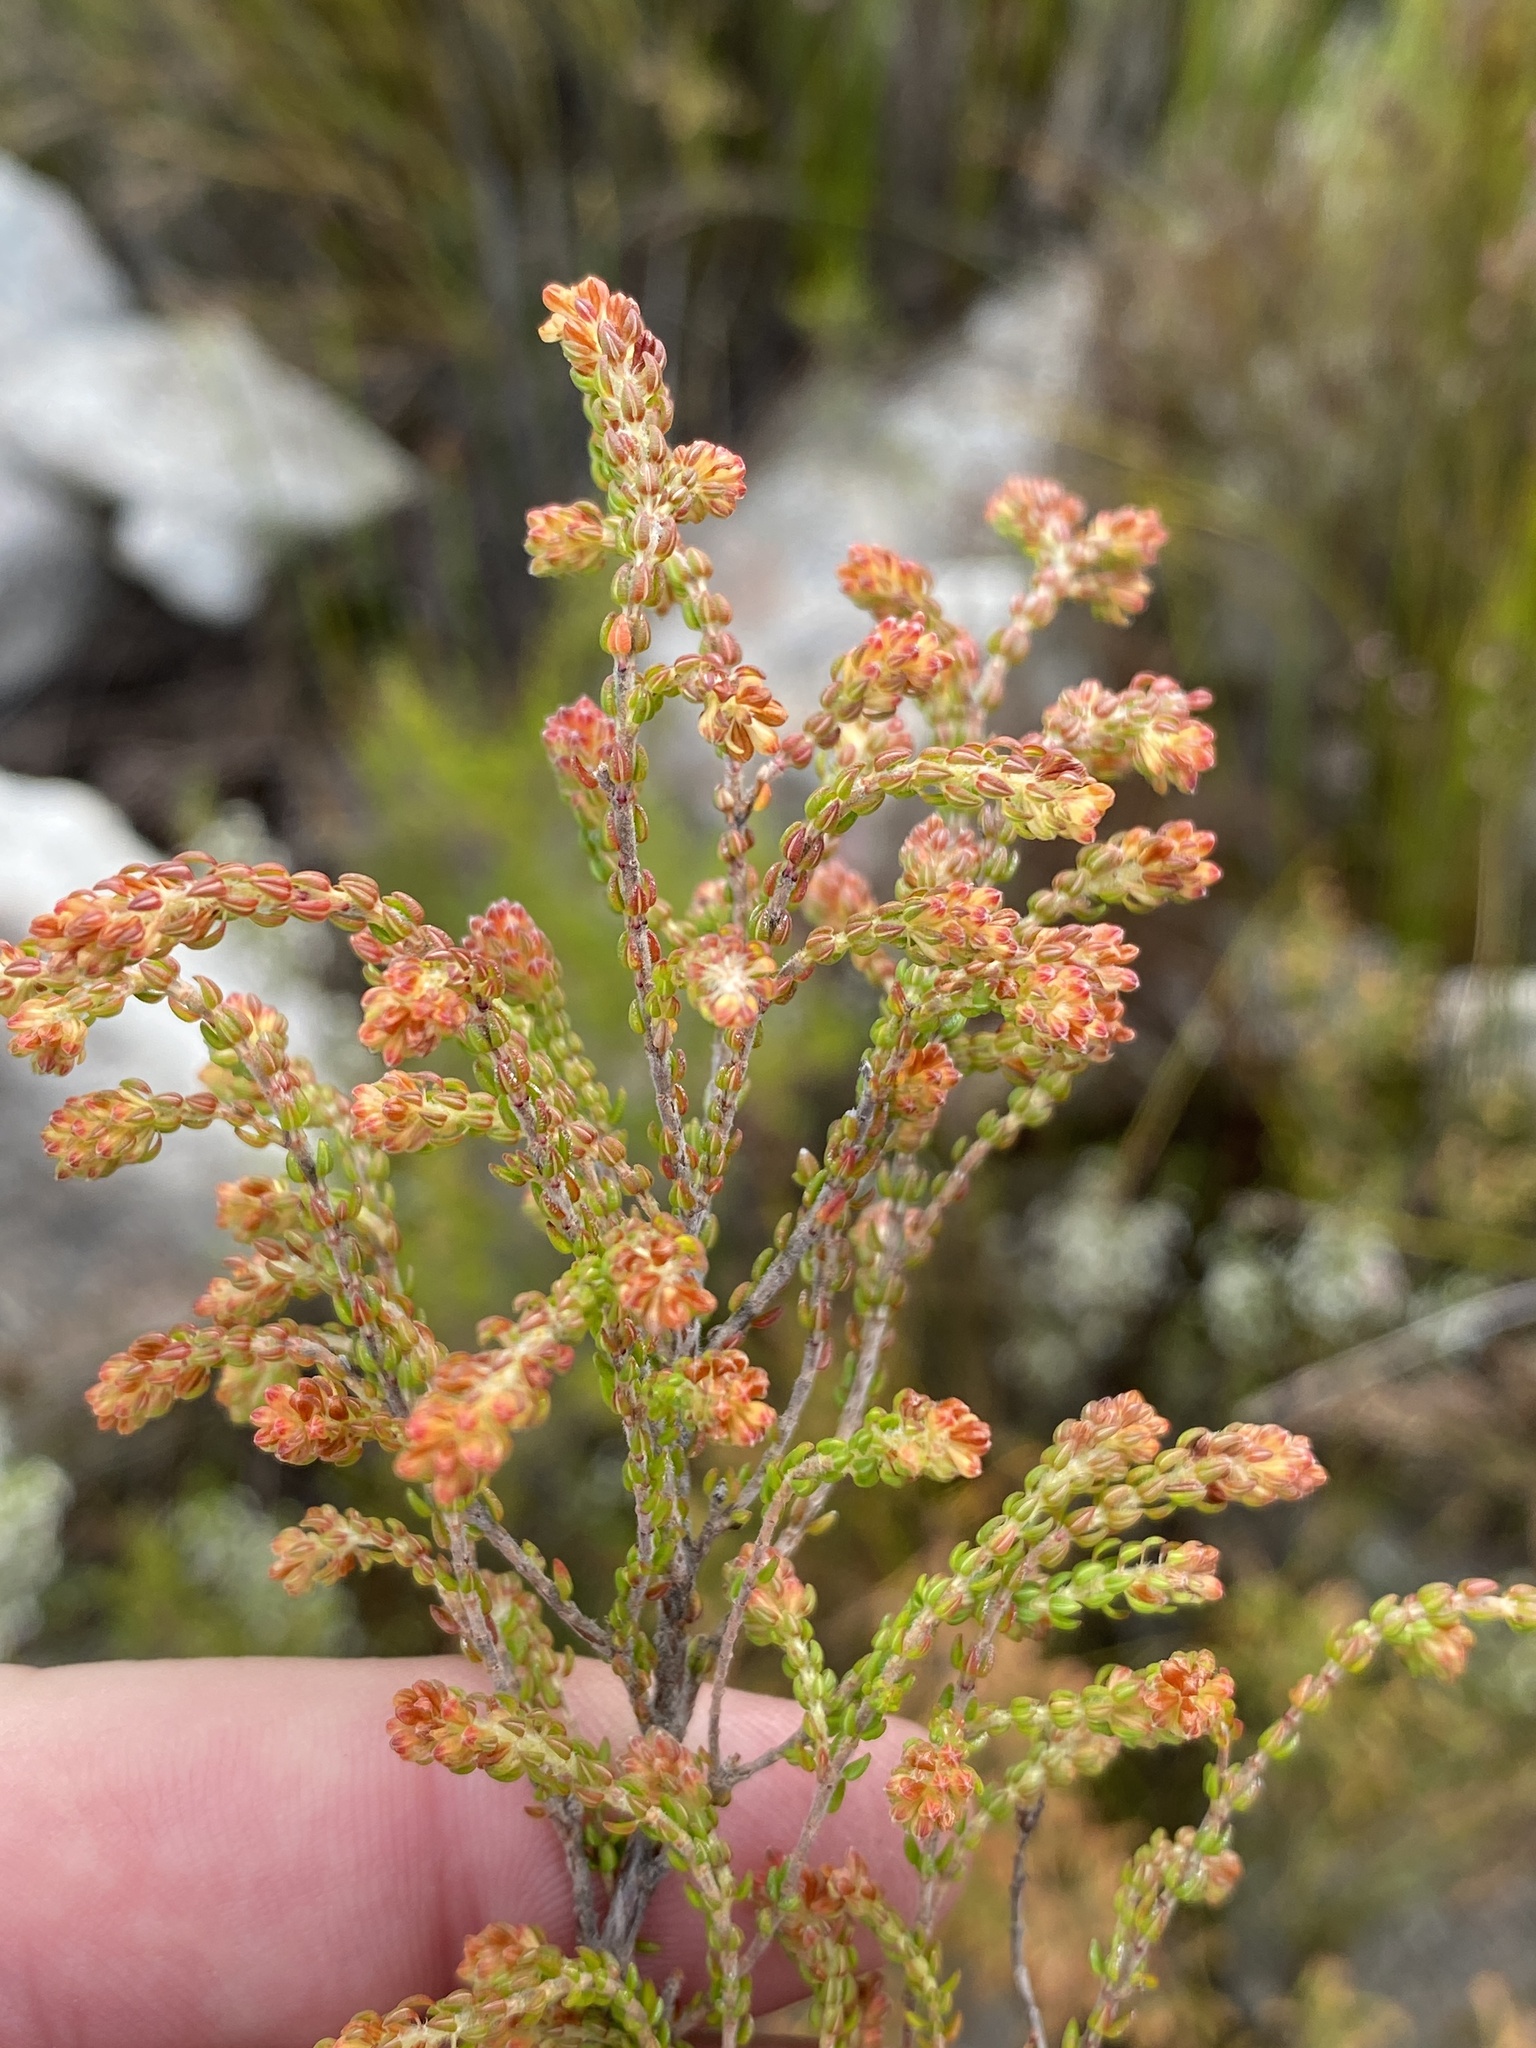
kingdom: Plantae
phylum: Tracheophyta
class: Magnoliopsida
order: Ericales
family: Ericaceae
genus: Erica
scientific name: Erica globiceps
